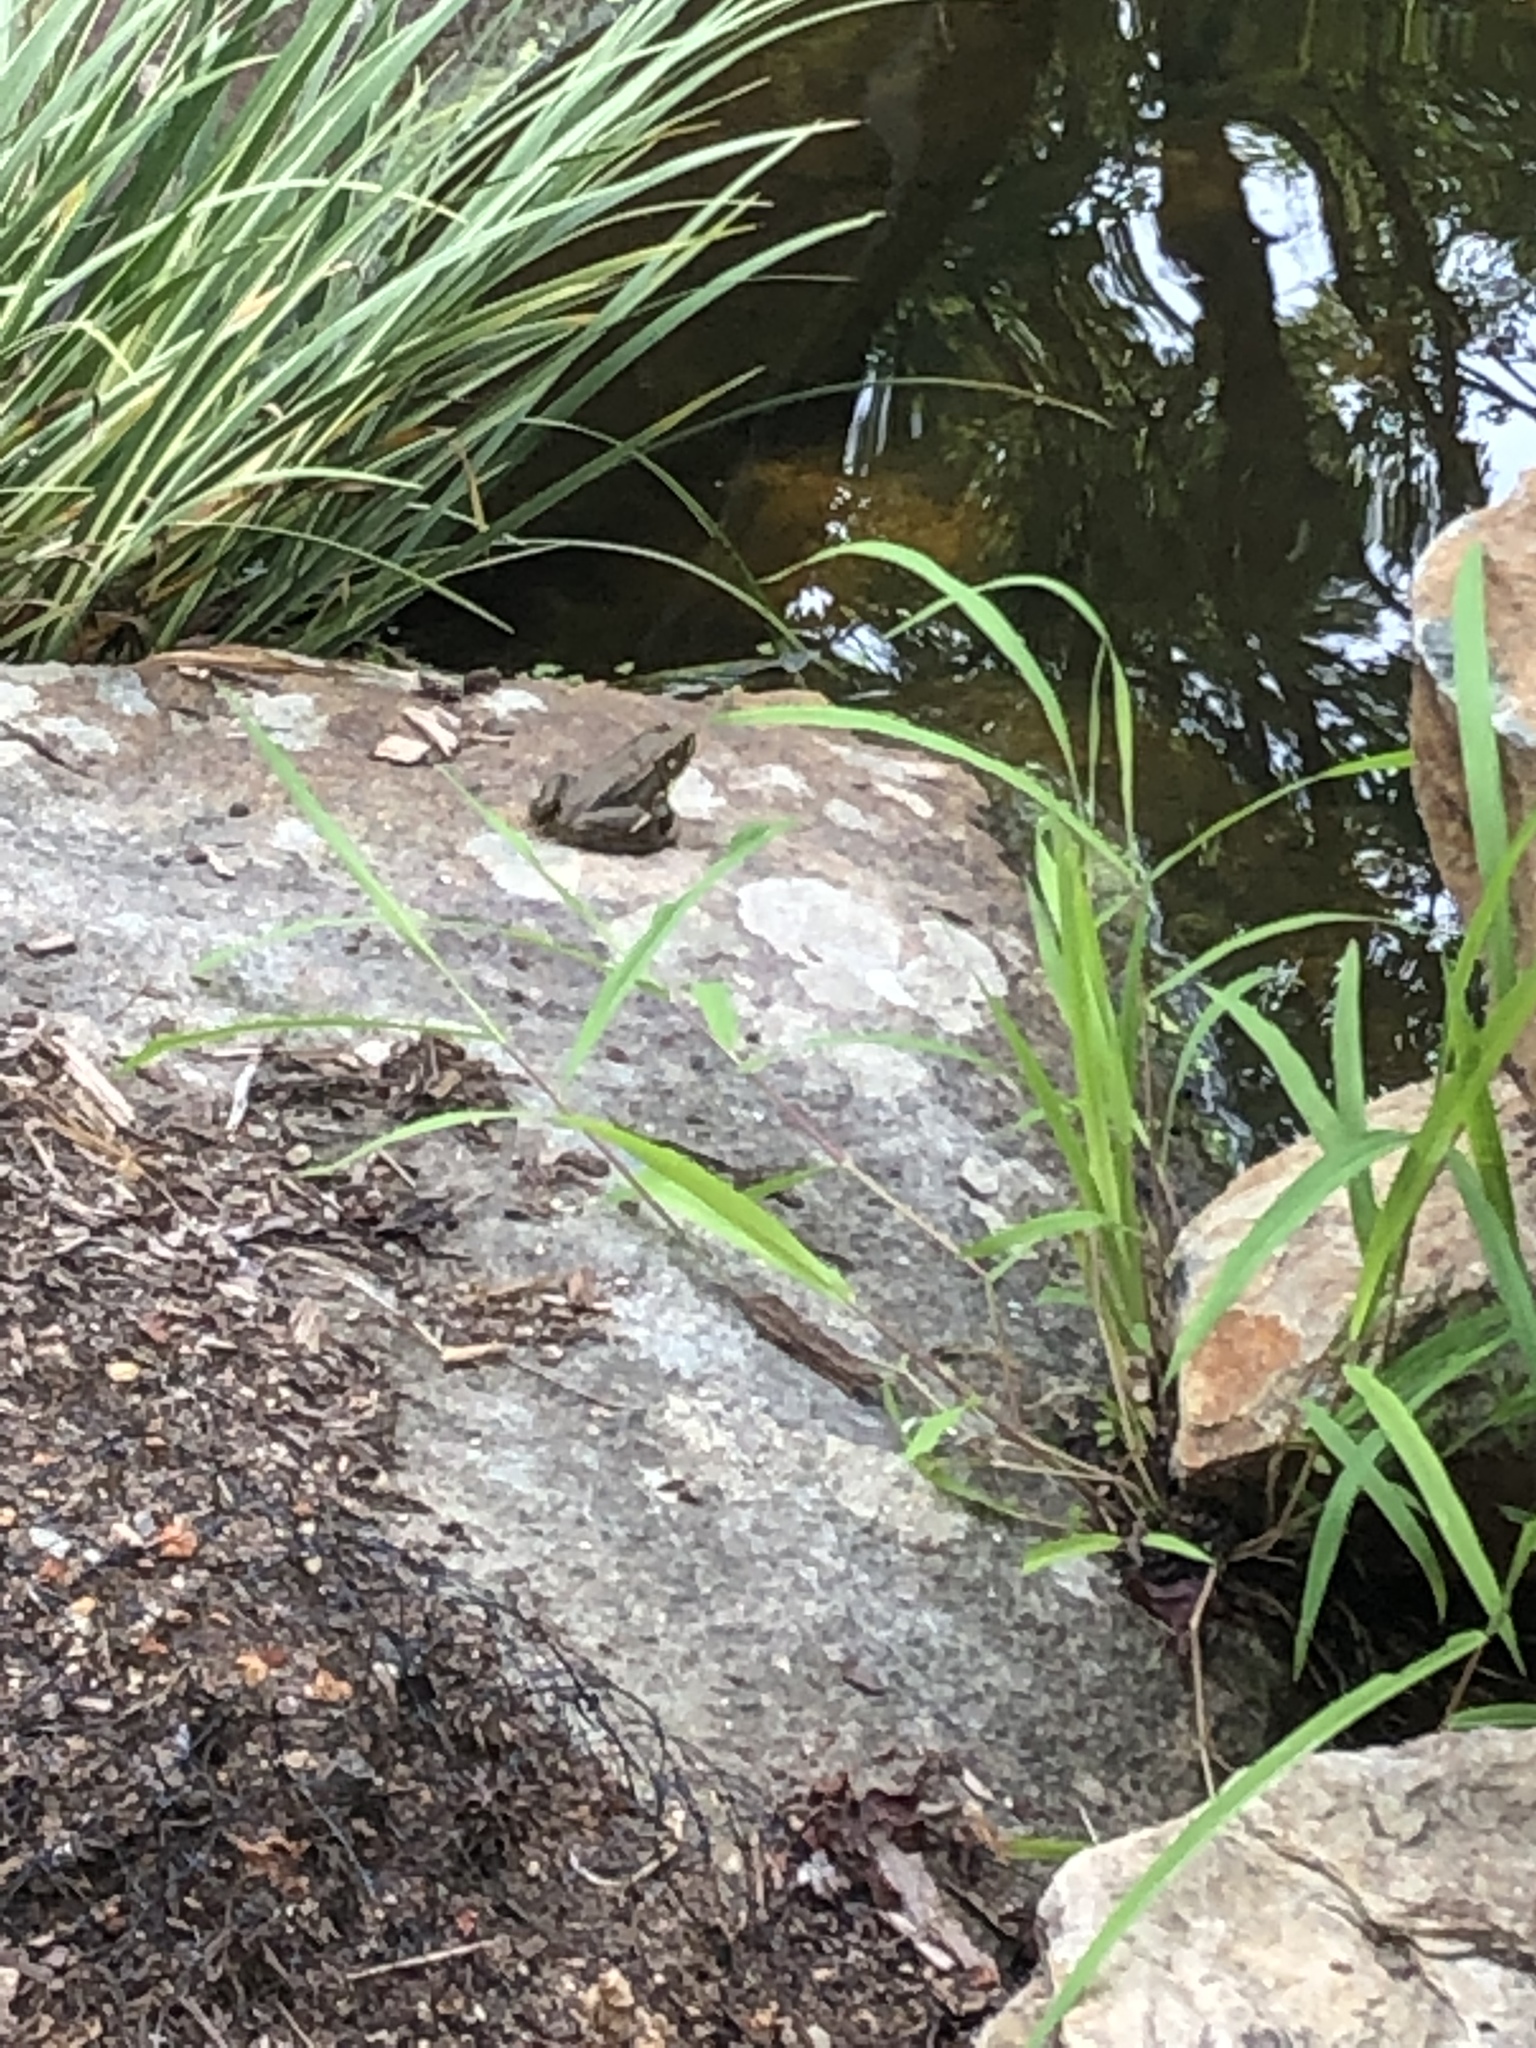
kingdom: Animalia
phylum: Chordata
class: Amphibia
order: Anura
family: Ranidae
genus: Lithobates
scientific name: Lithobates clamitans
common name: Green frog
